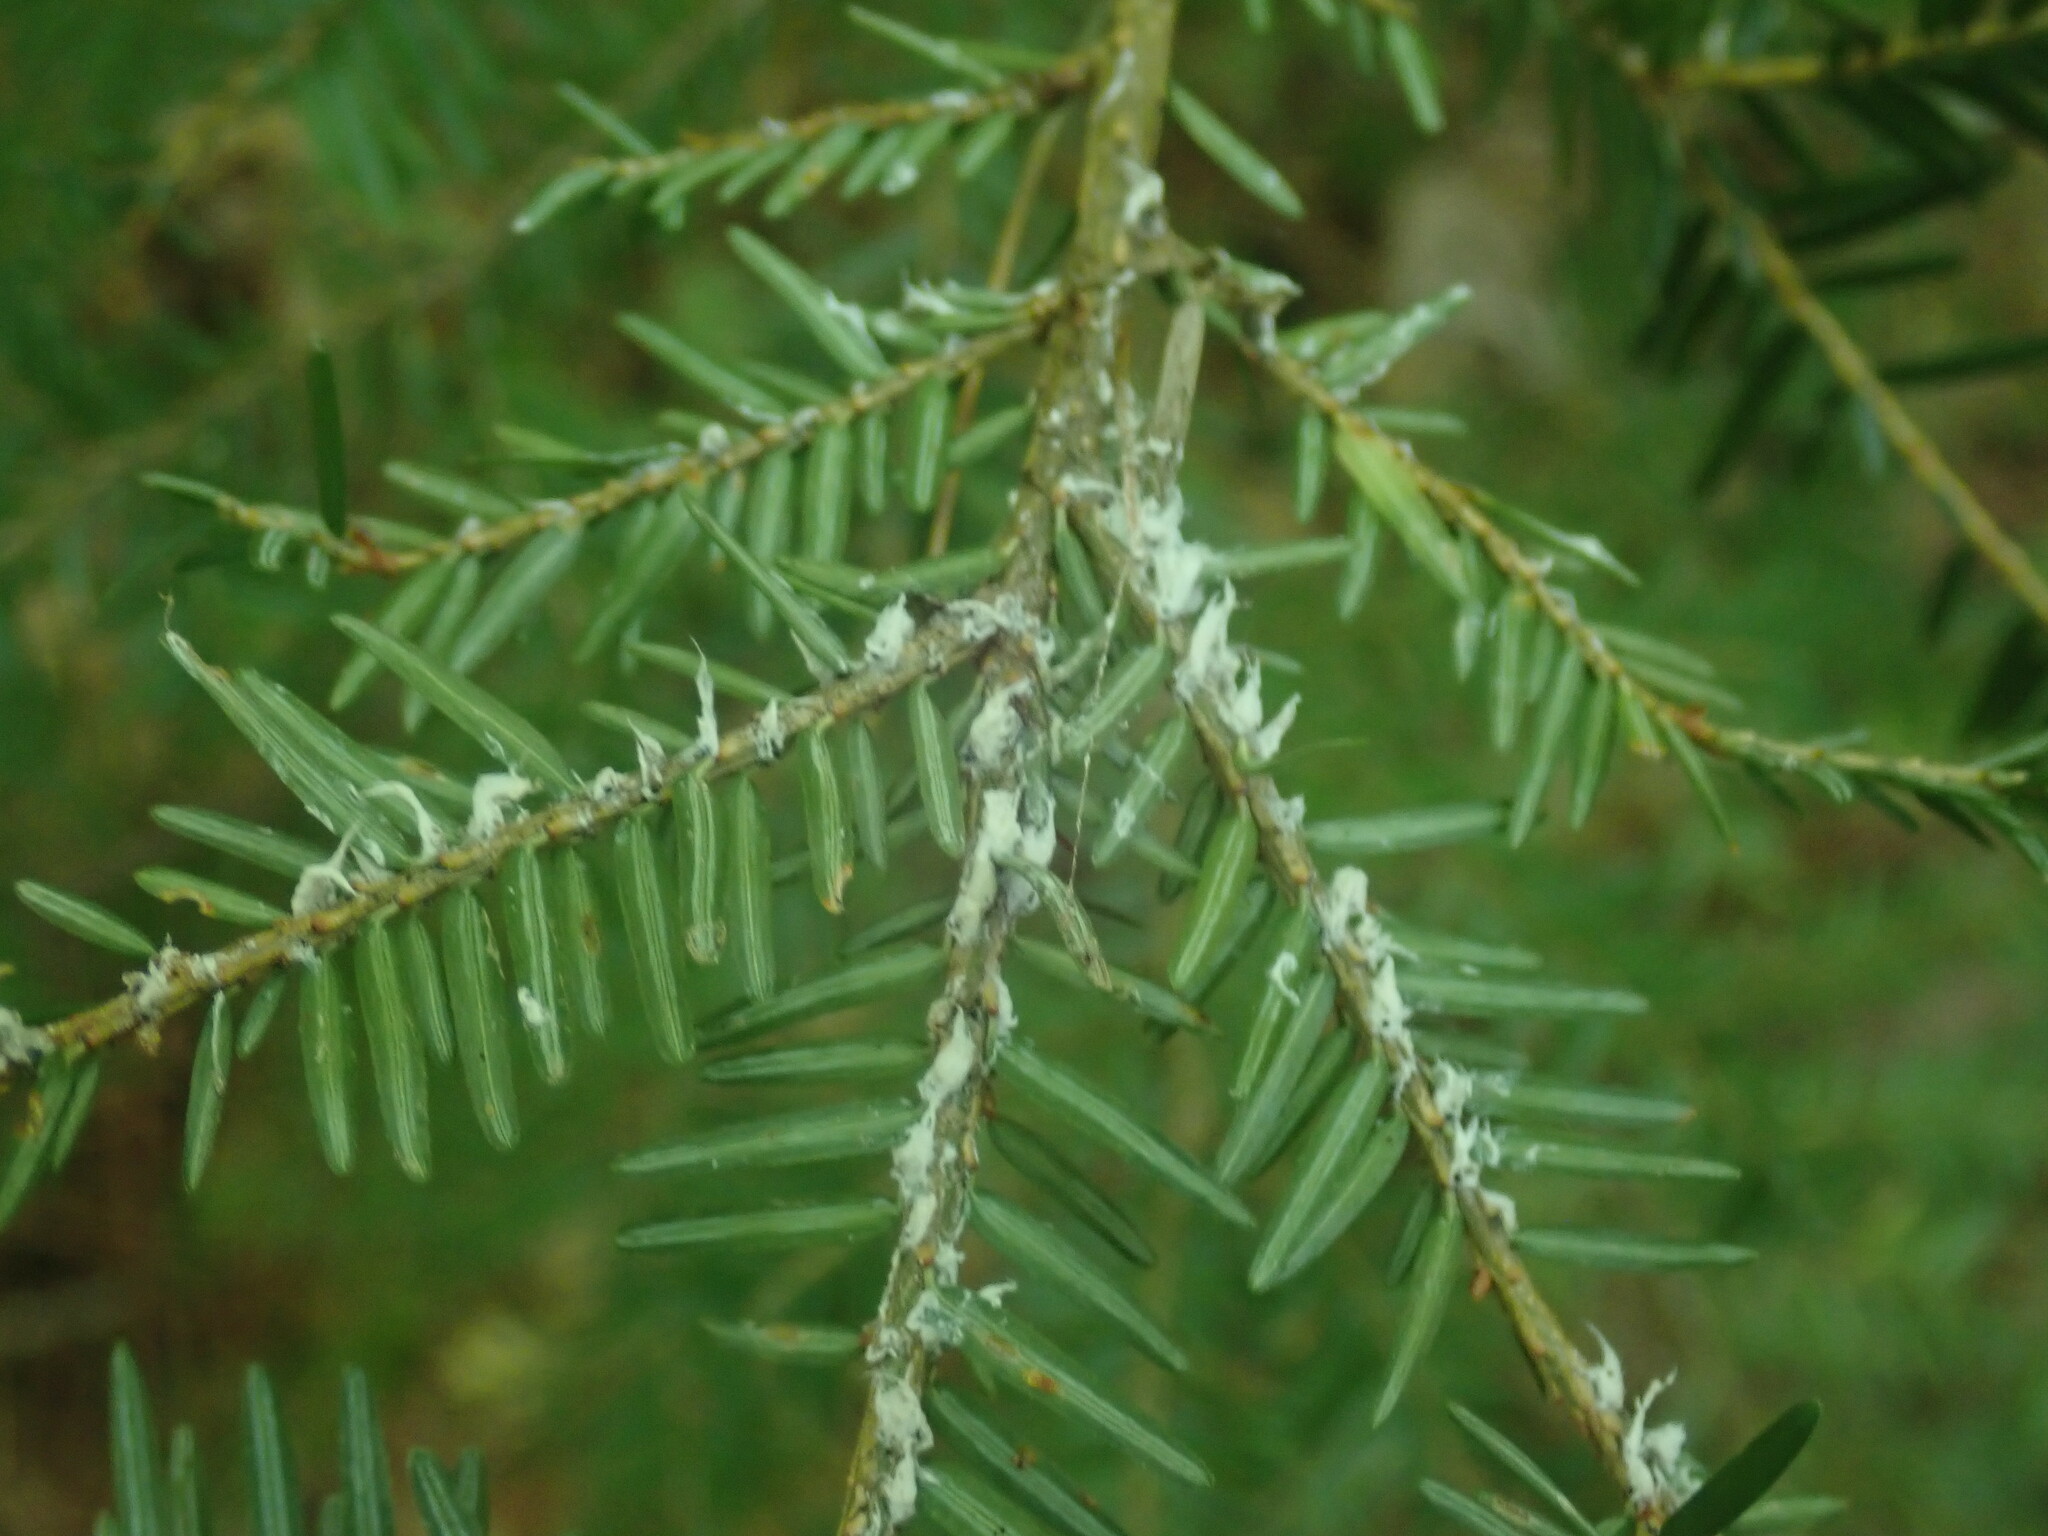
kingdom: Animalia
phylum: Arthropoda
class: Insecta
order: Hemiptera
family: Adelgidae
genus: Adelges
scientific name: Adelges tsugae
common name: Hemlock woolly adelgid
